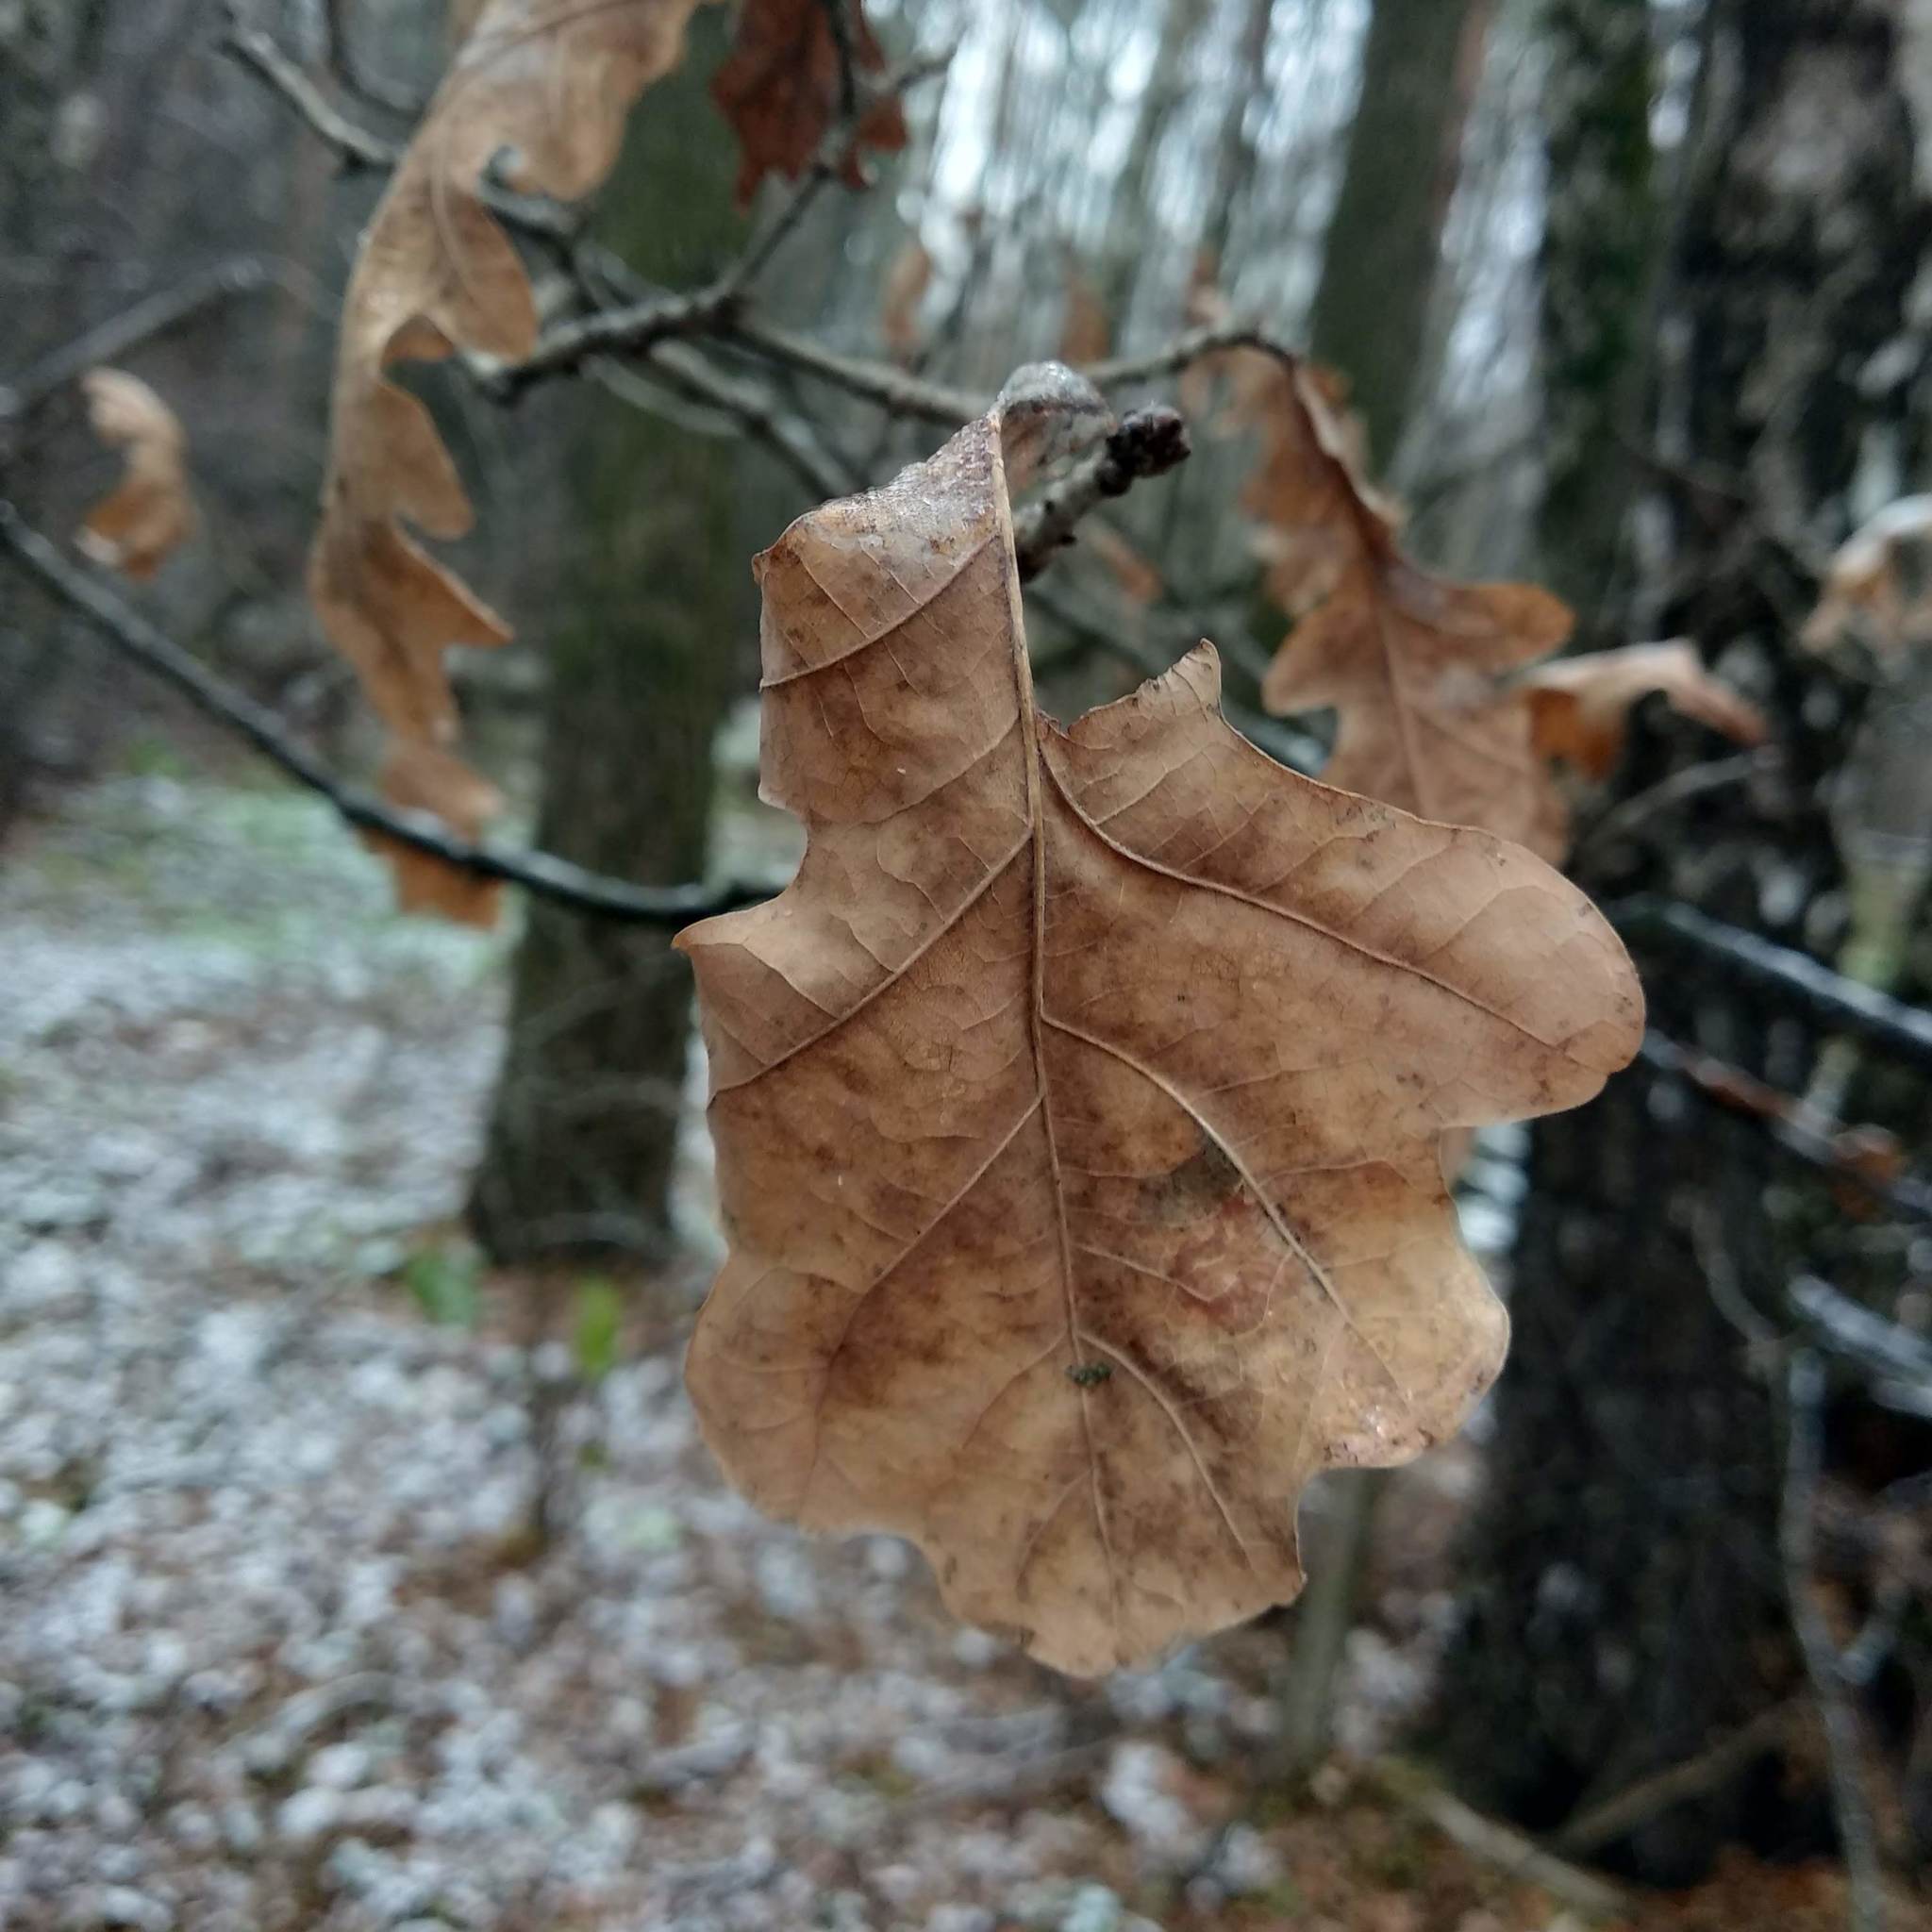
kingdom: Plantae
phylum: Tracheophyta
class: Magnoliopsida
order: Fagales
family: Fagaceae
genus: Quercus
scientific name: Quercus robur
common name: Pedunculate oak
